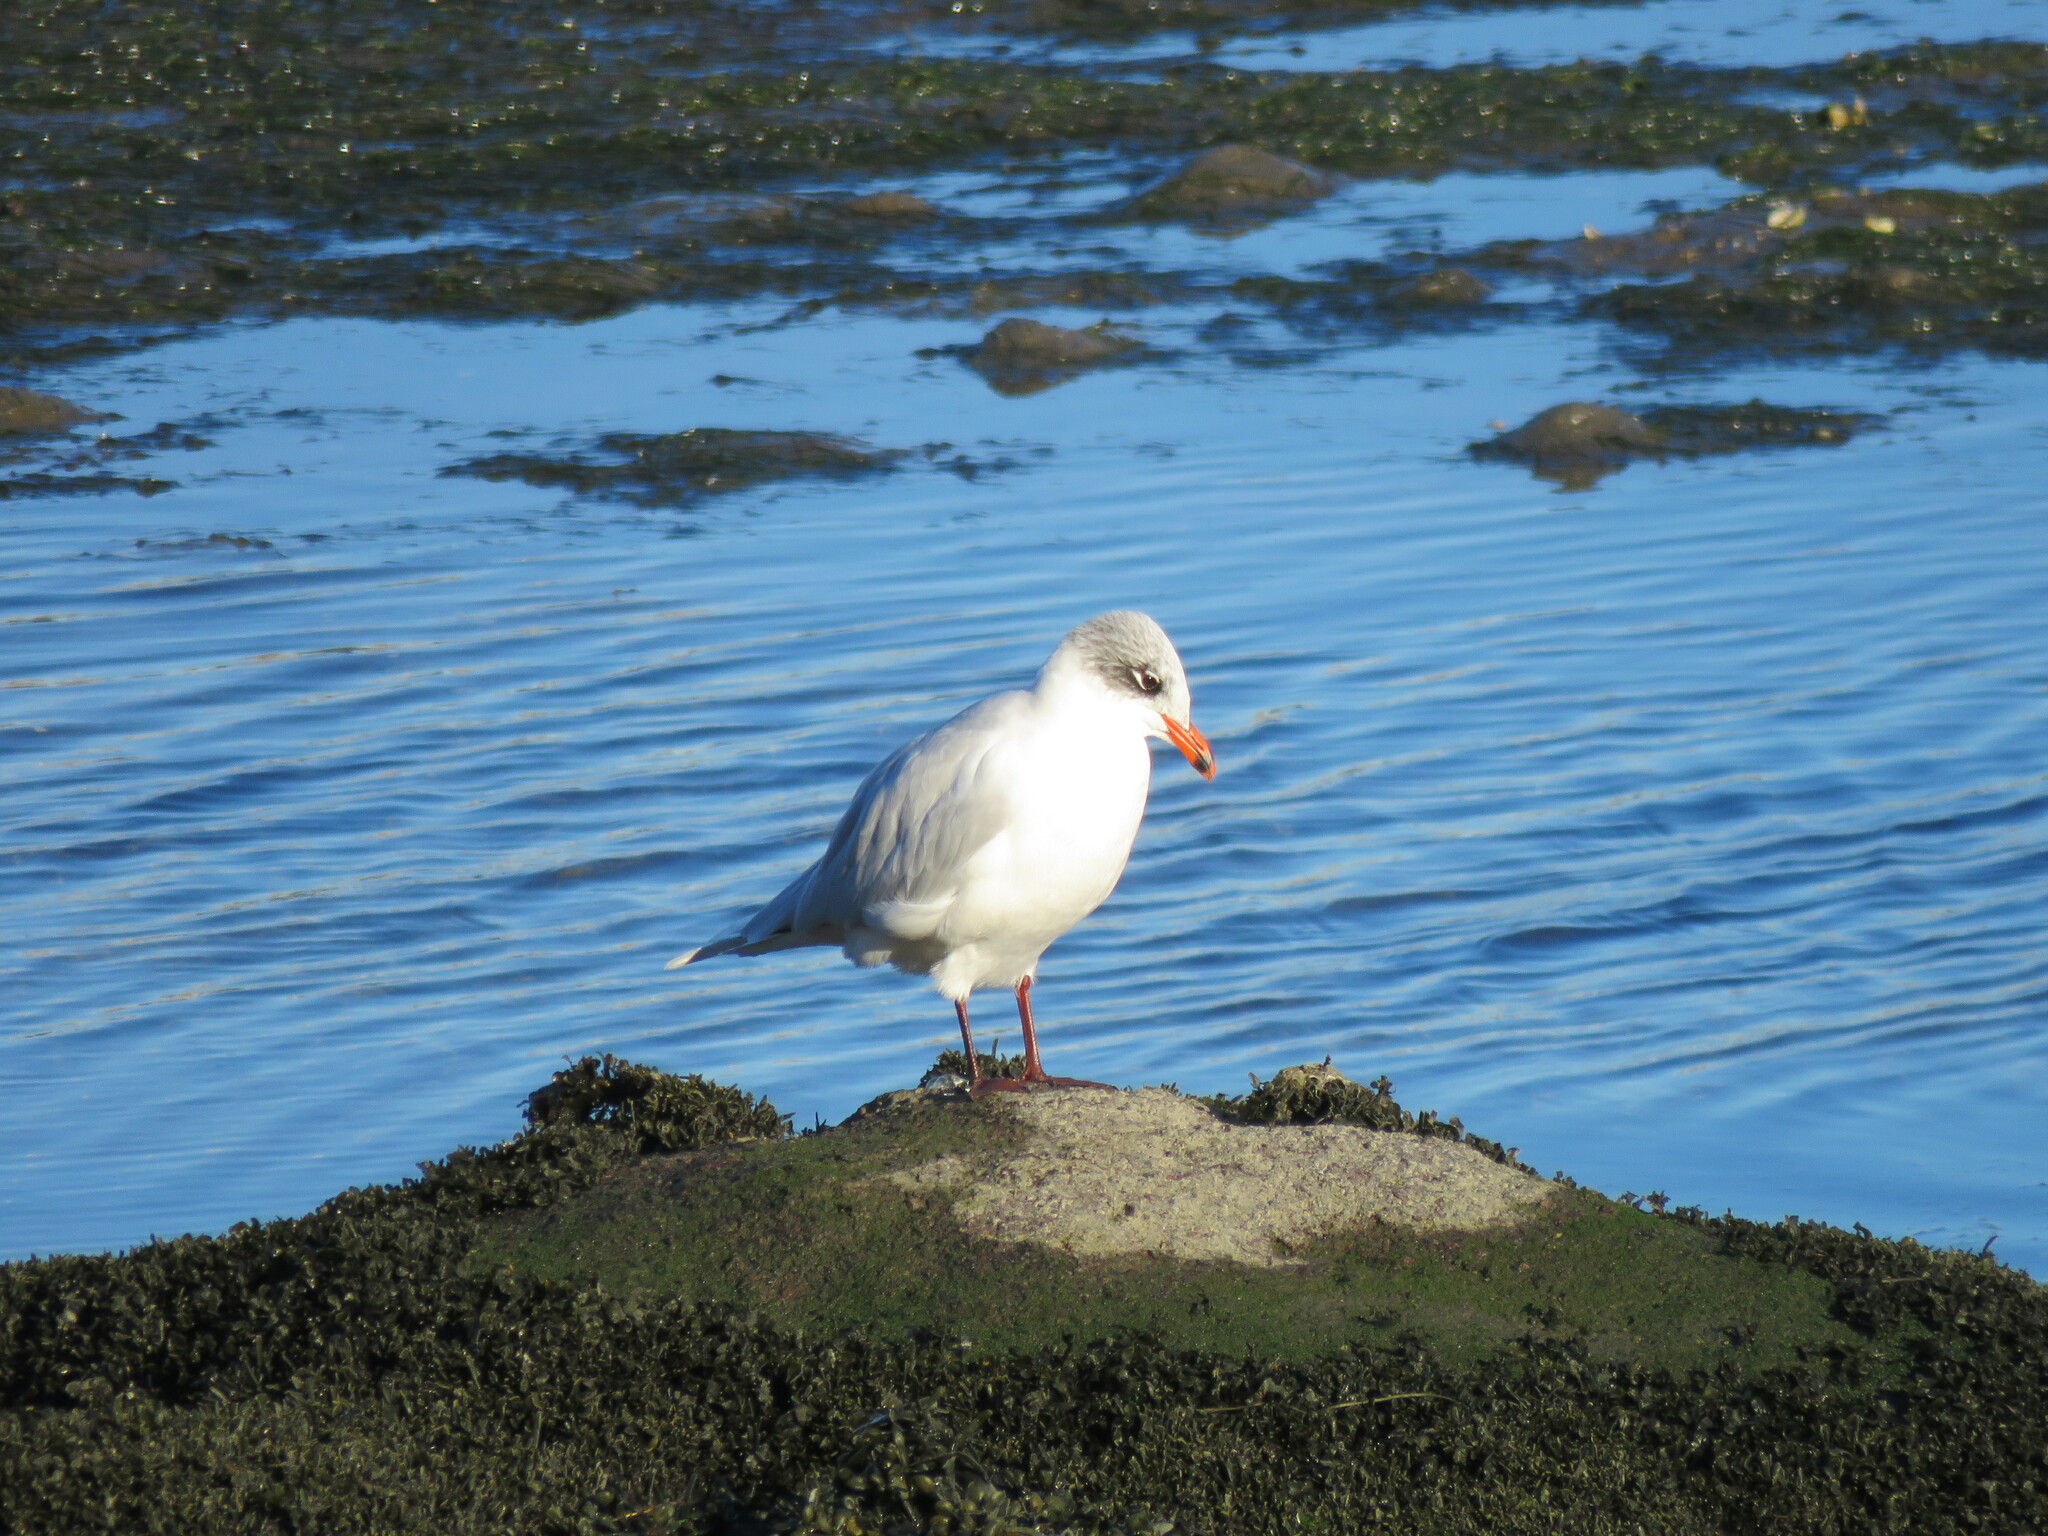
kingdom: Animalia
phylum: Chordata
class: Aves
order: Charadriiformes
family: Laridae
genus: Ichthyaetus
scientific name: Ichthyaetus melanocephalus
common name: Mediterranean gull
